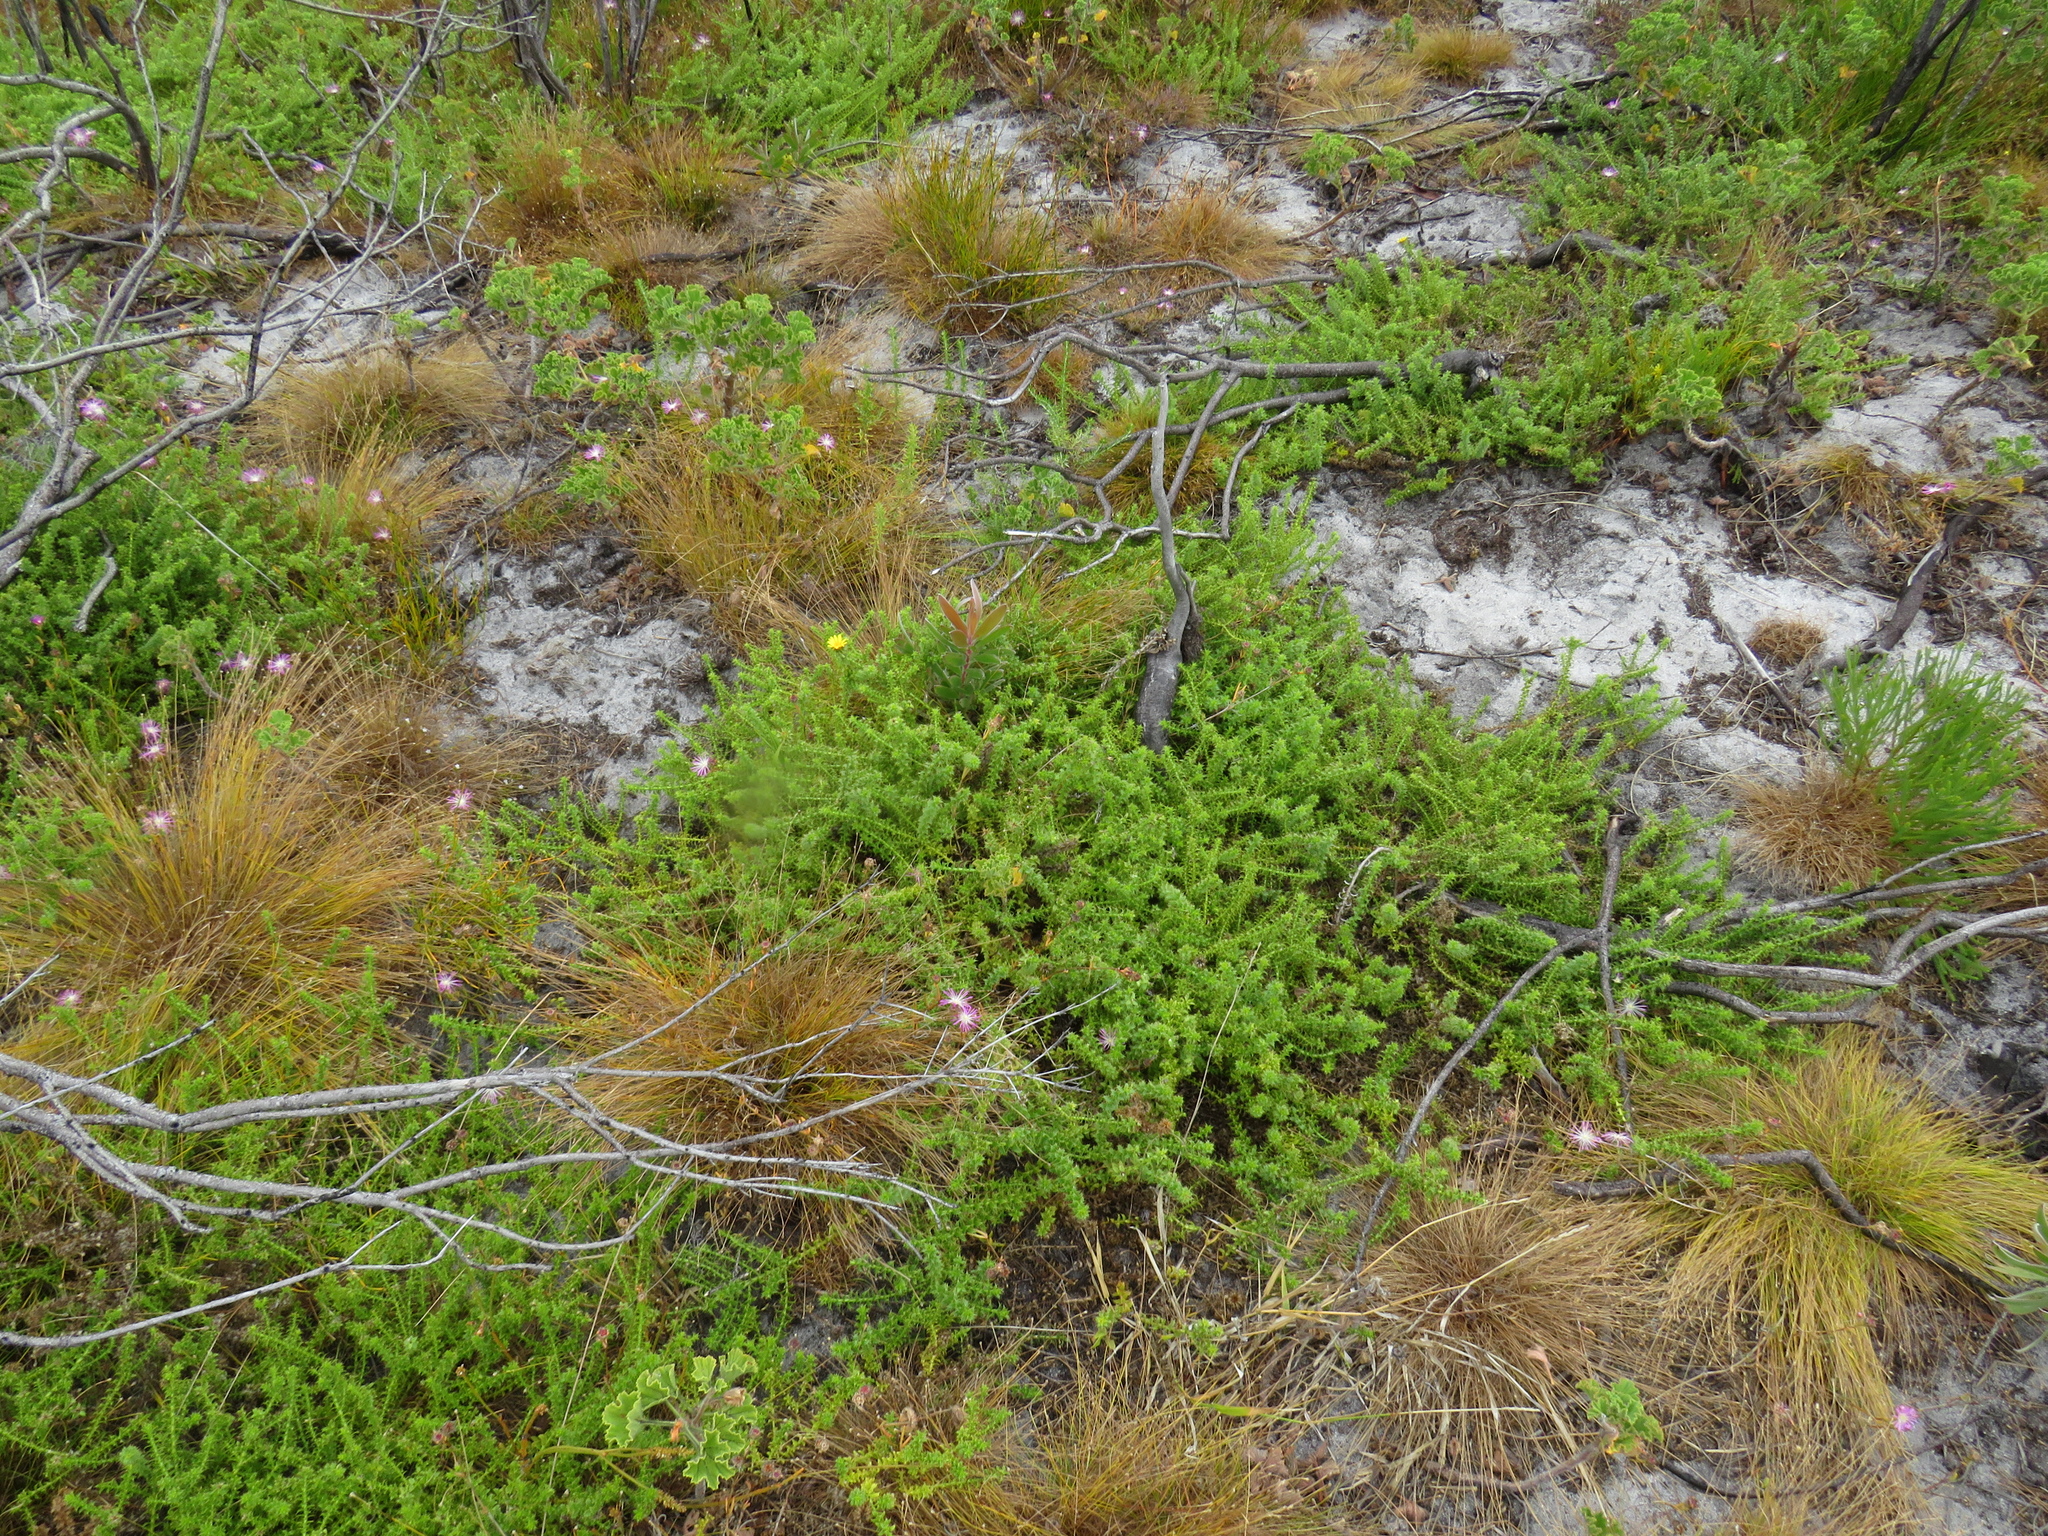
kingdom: Plantae
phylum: Tracheophyta
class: Magnoliopsida
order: Asterales
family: Asteraceae
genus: Cullumia
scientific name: Cullumia setosa
